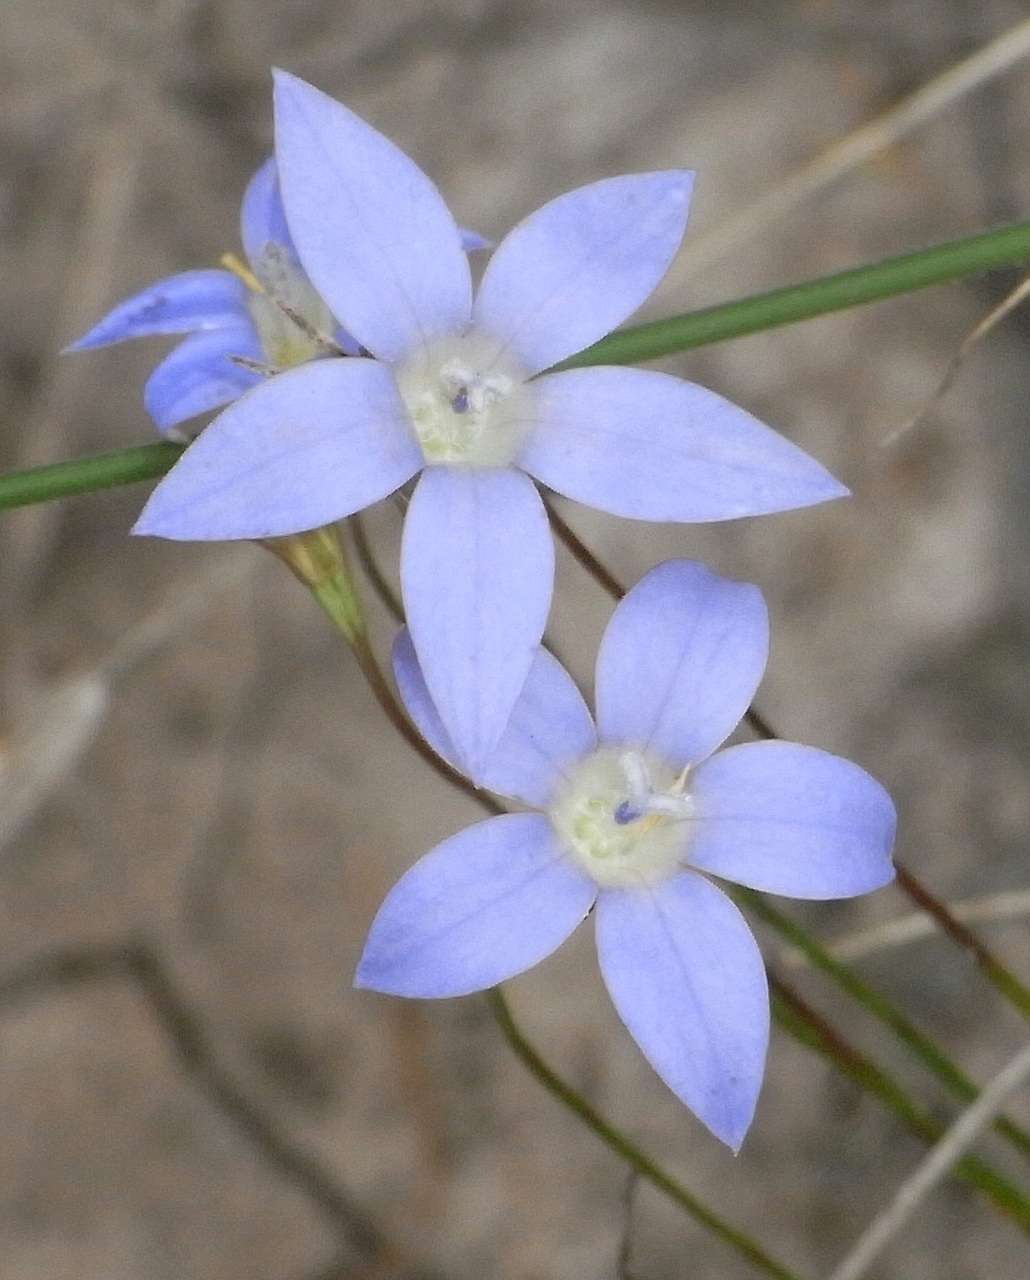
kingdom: Plantae
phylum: Tracheophyta
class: Magnoliopsida
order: Asterales
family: Campanulaceae
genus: Wahlenbergia
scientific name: Wahlenbergia luteola
